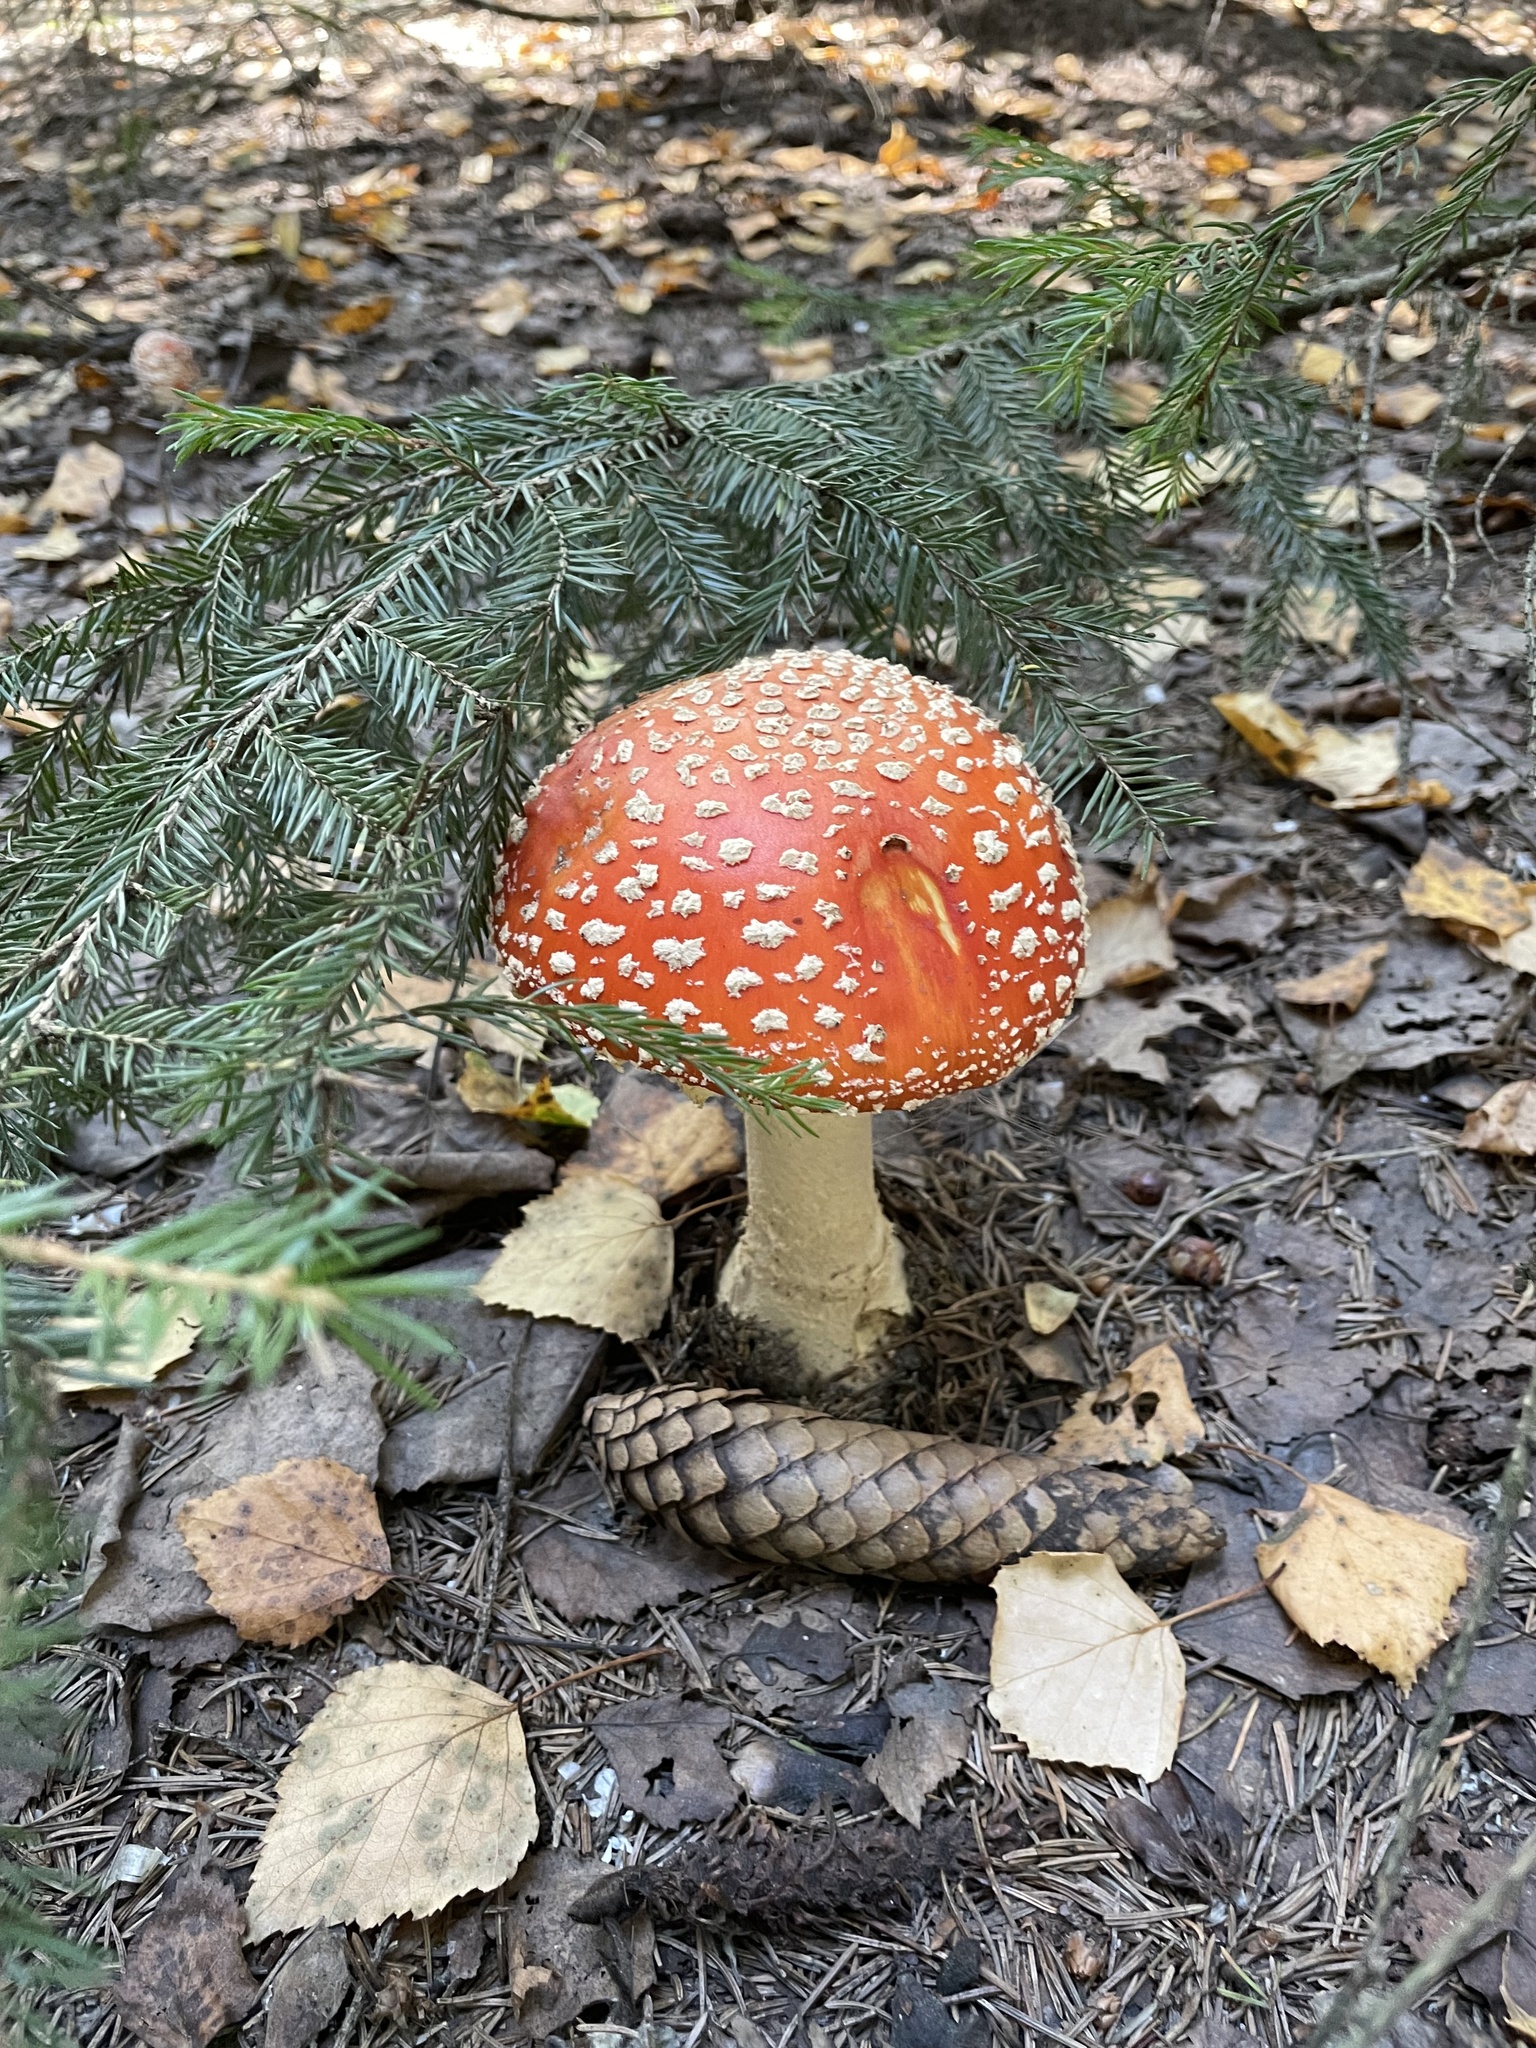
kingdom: Fungi
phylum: Basidiomycota
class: Agaricomycetes
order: Agaricales
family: Amanitaceae
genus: Amanita
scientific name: Amanita muscaria
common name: Fly agaric
